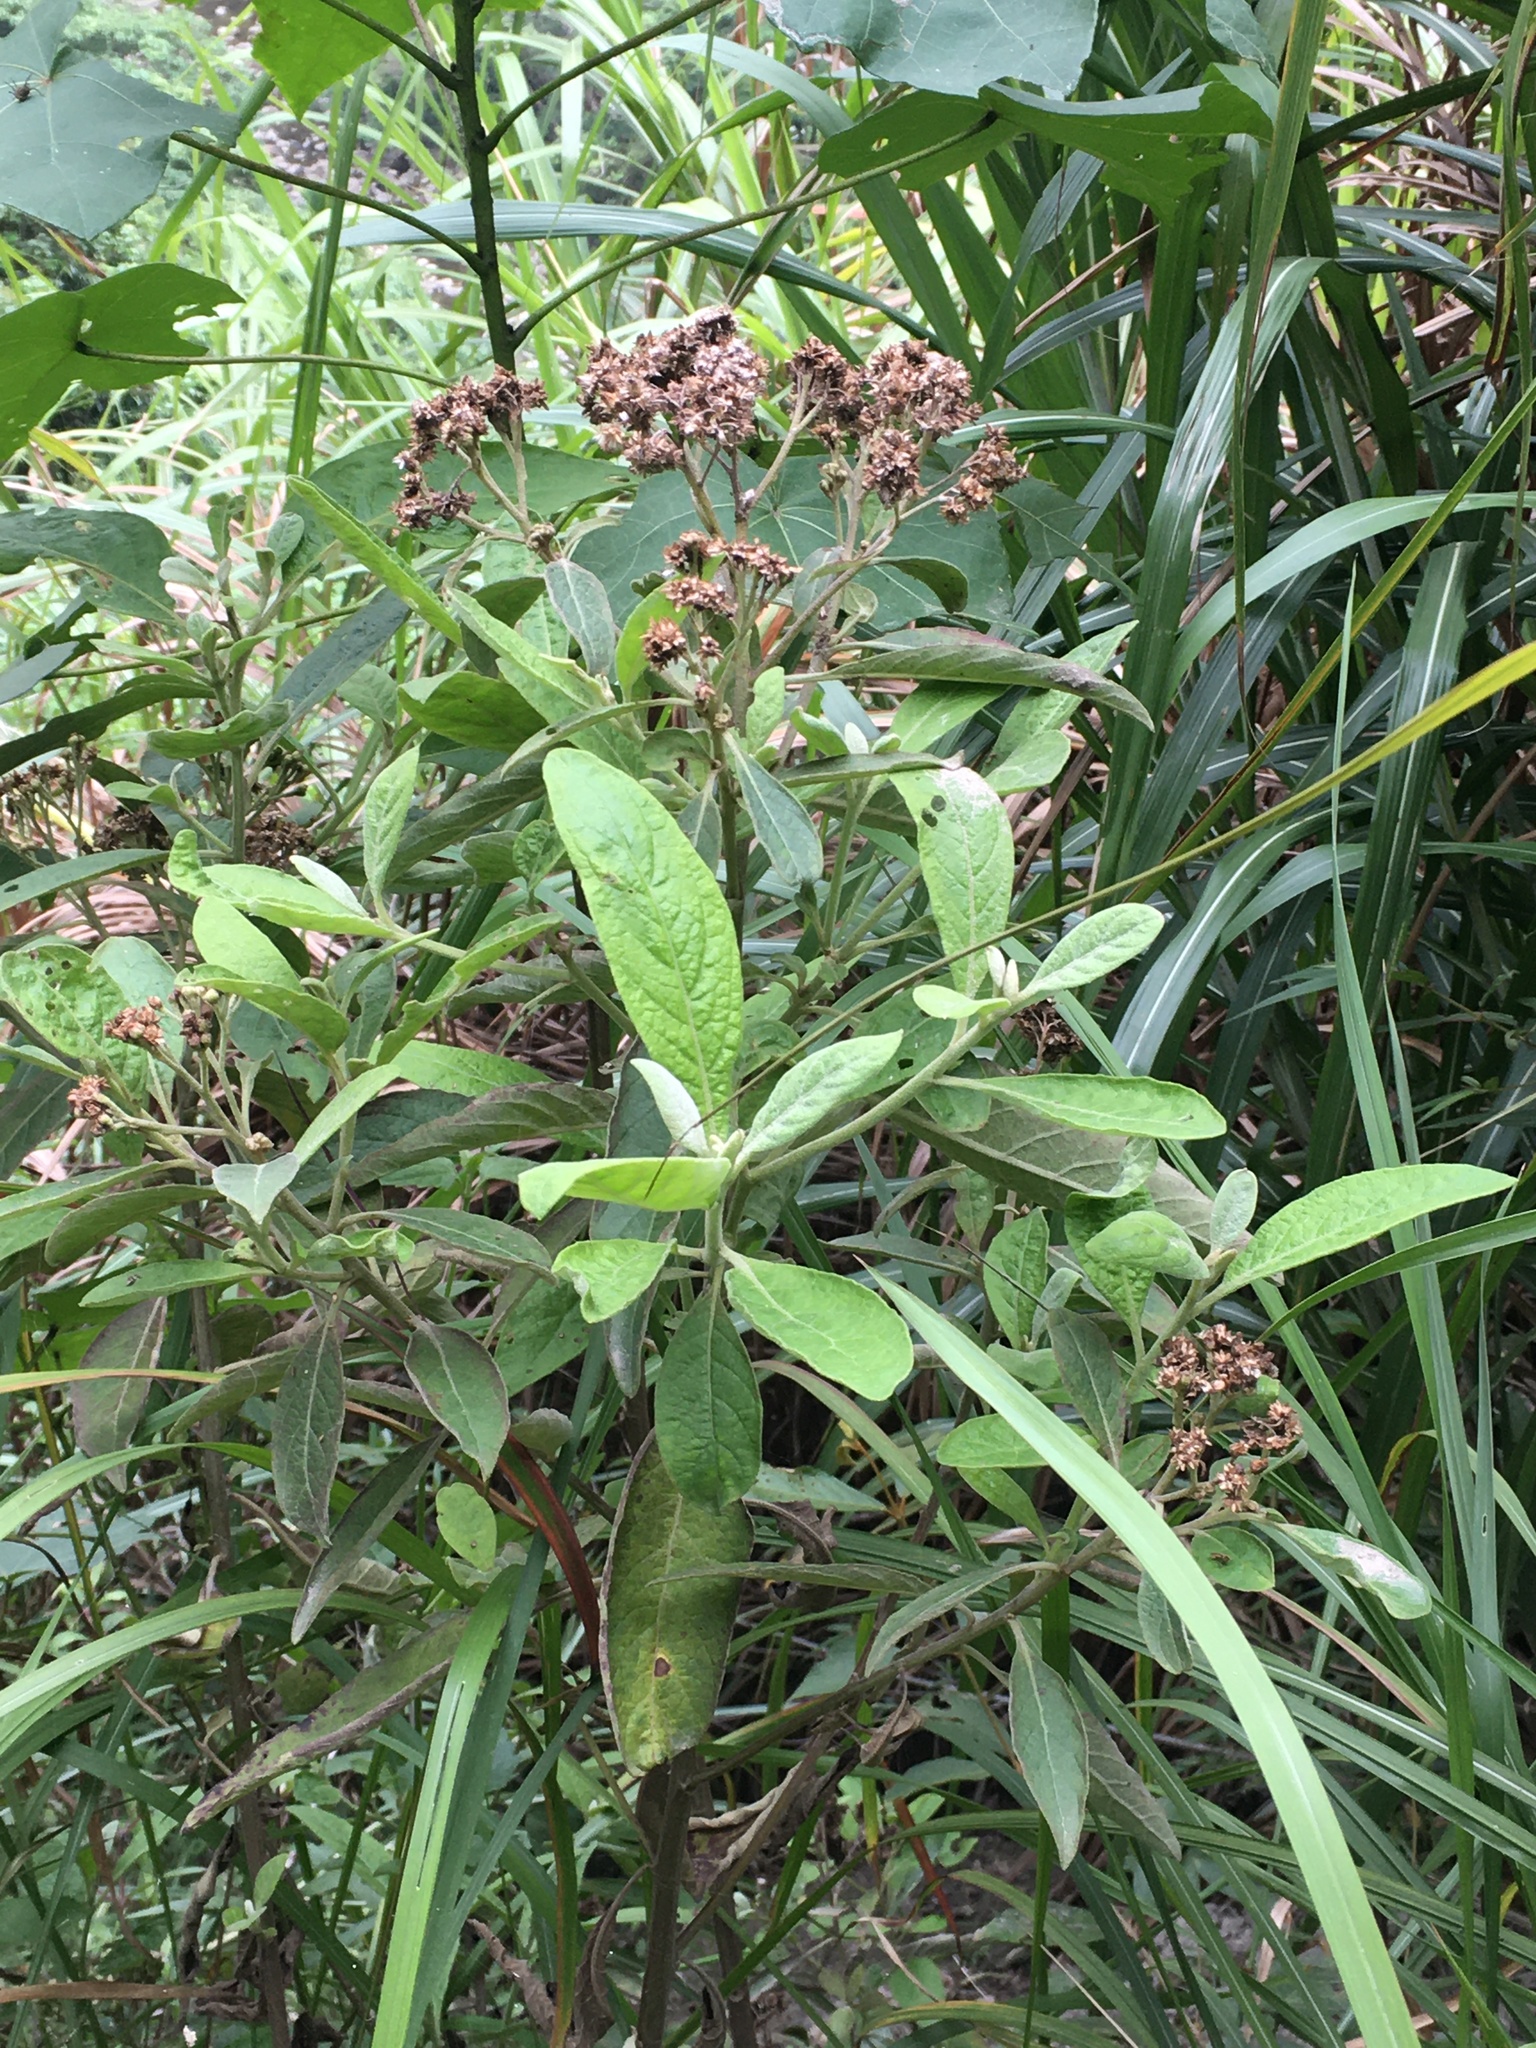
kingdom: Plantae
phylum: Tracheophyta
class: Magnoliopsida
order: Asterales
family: Asteraceae
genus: Pluchea
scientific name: Pluchea carolinensis
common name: Marsh fleabane
